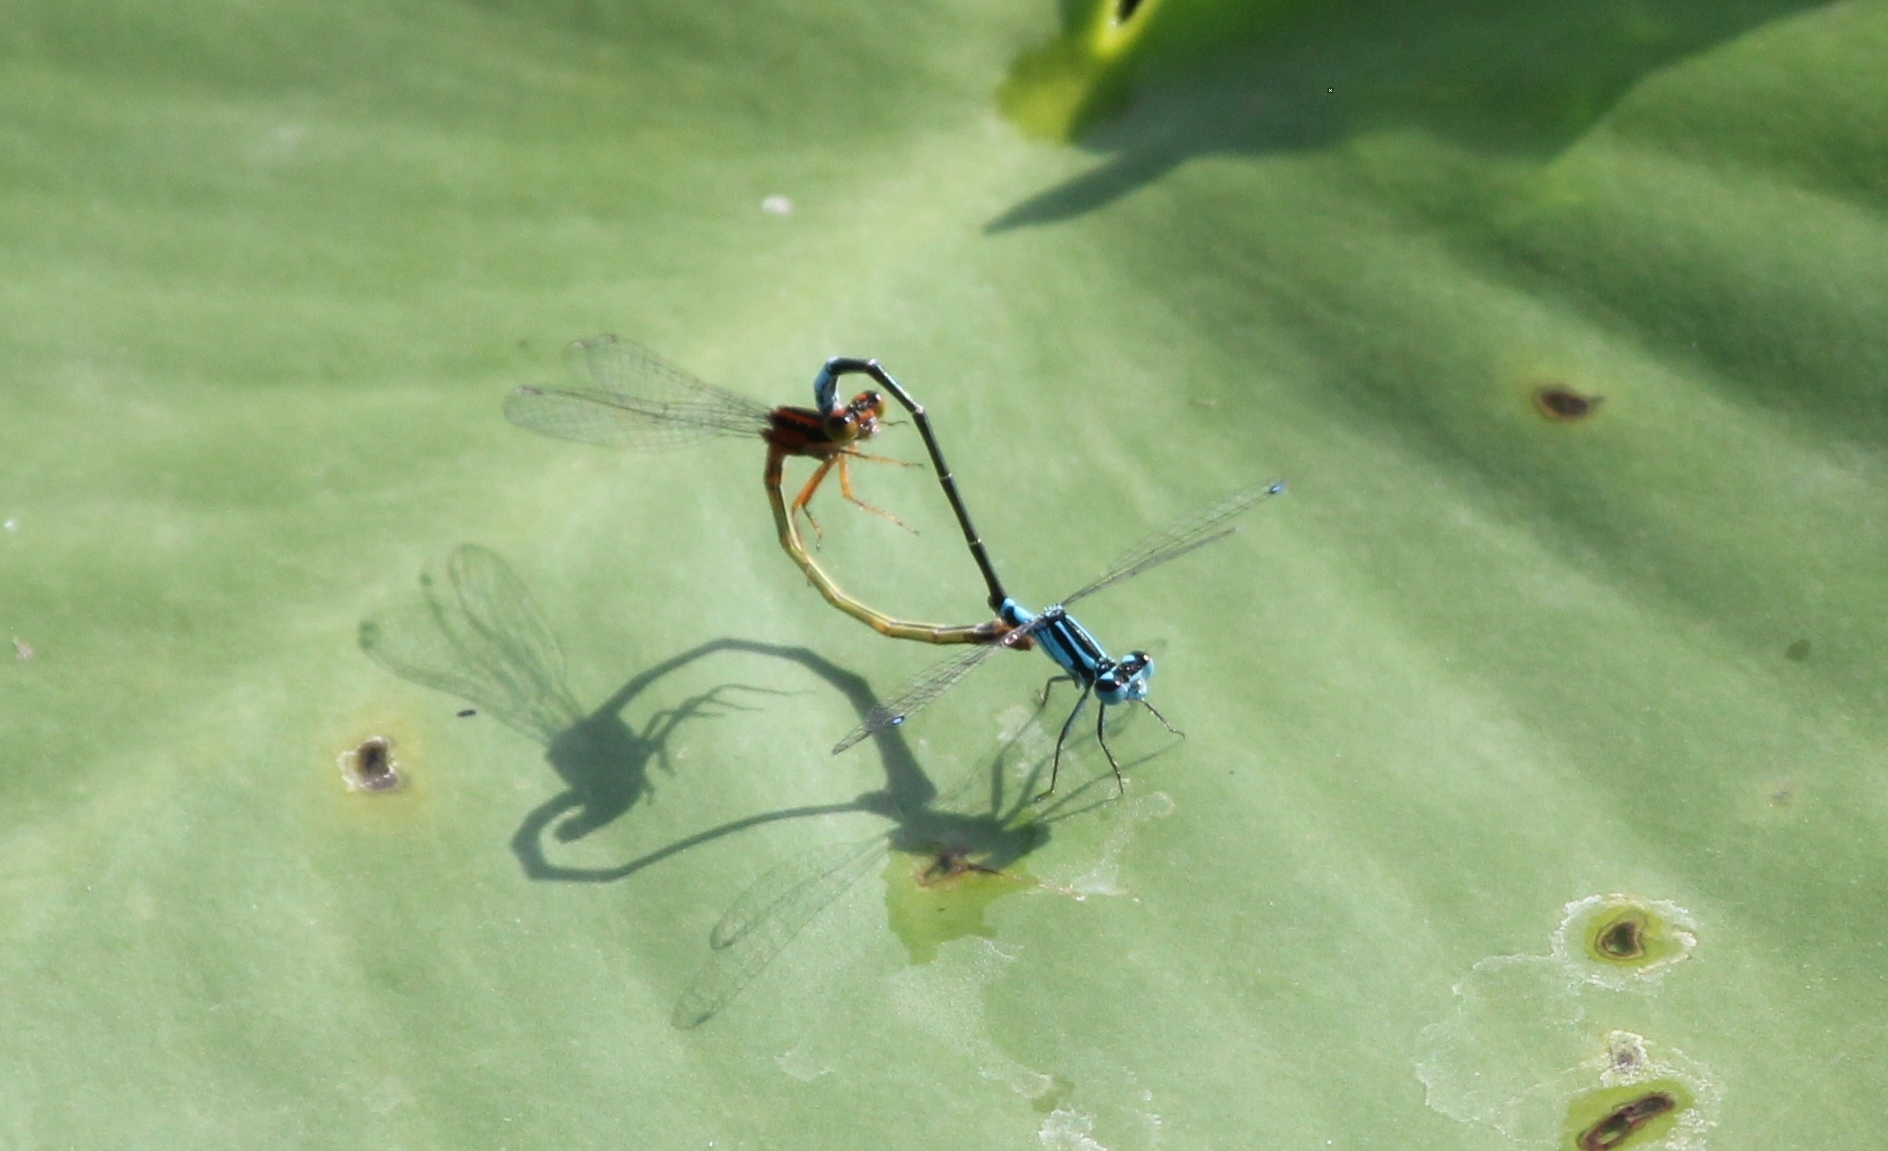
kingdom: Animalia
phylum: Arthropoda
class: Insecta
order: Odonata
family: Coenagrionidae
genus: Ischnura
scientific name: Ischnura kellicotti
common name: Lilypad forktail
